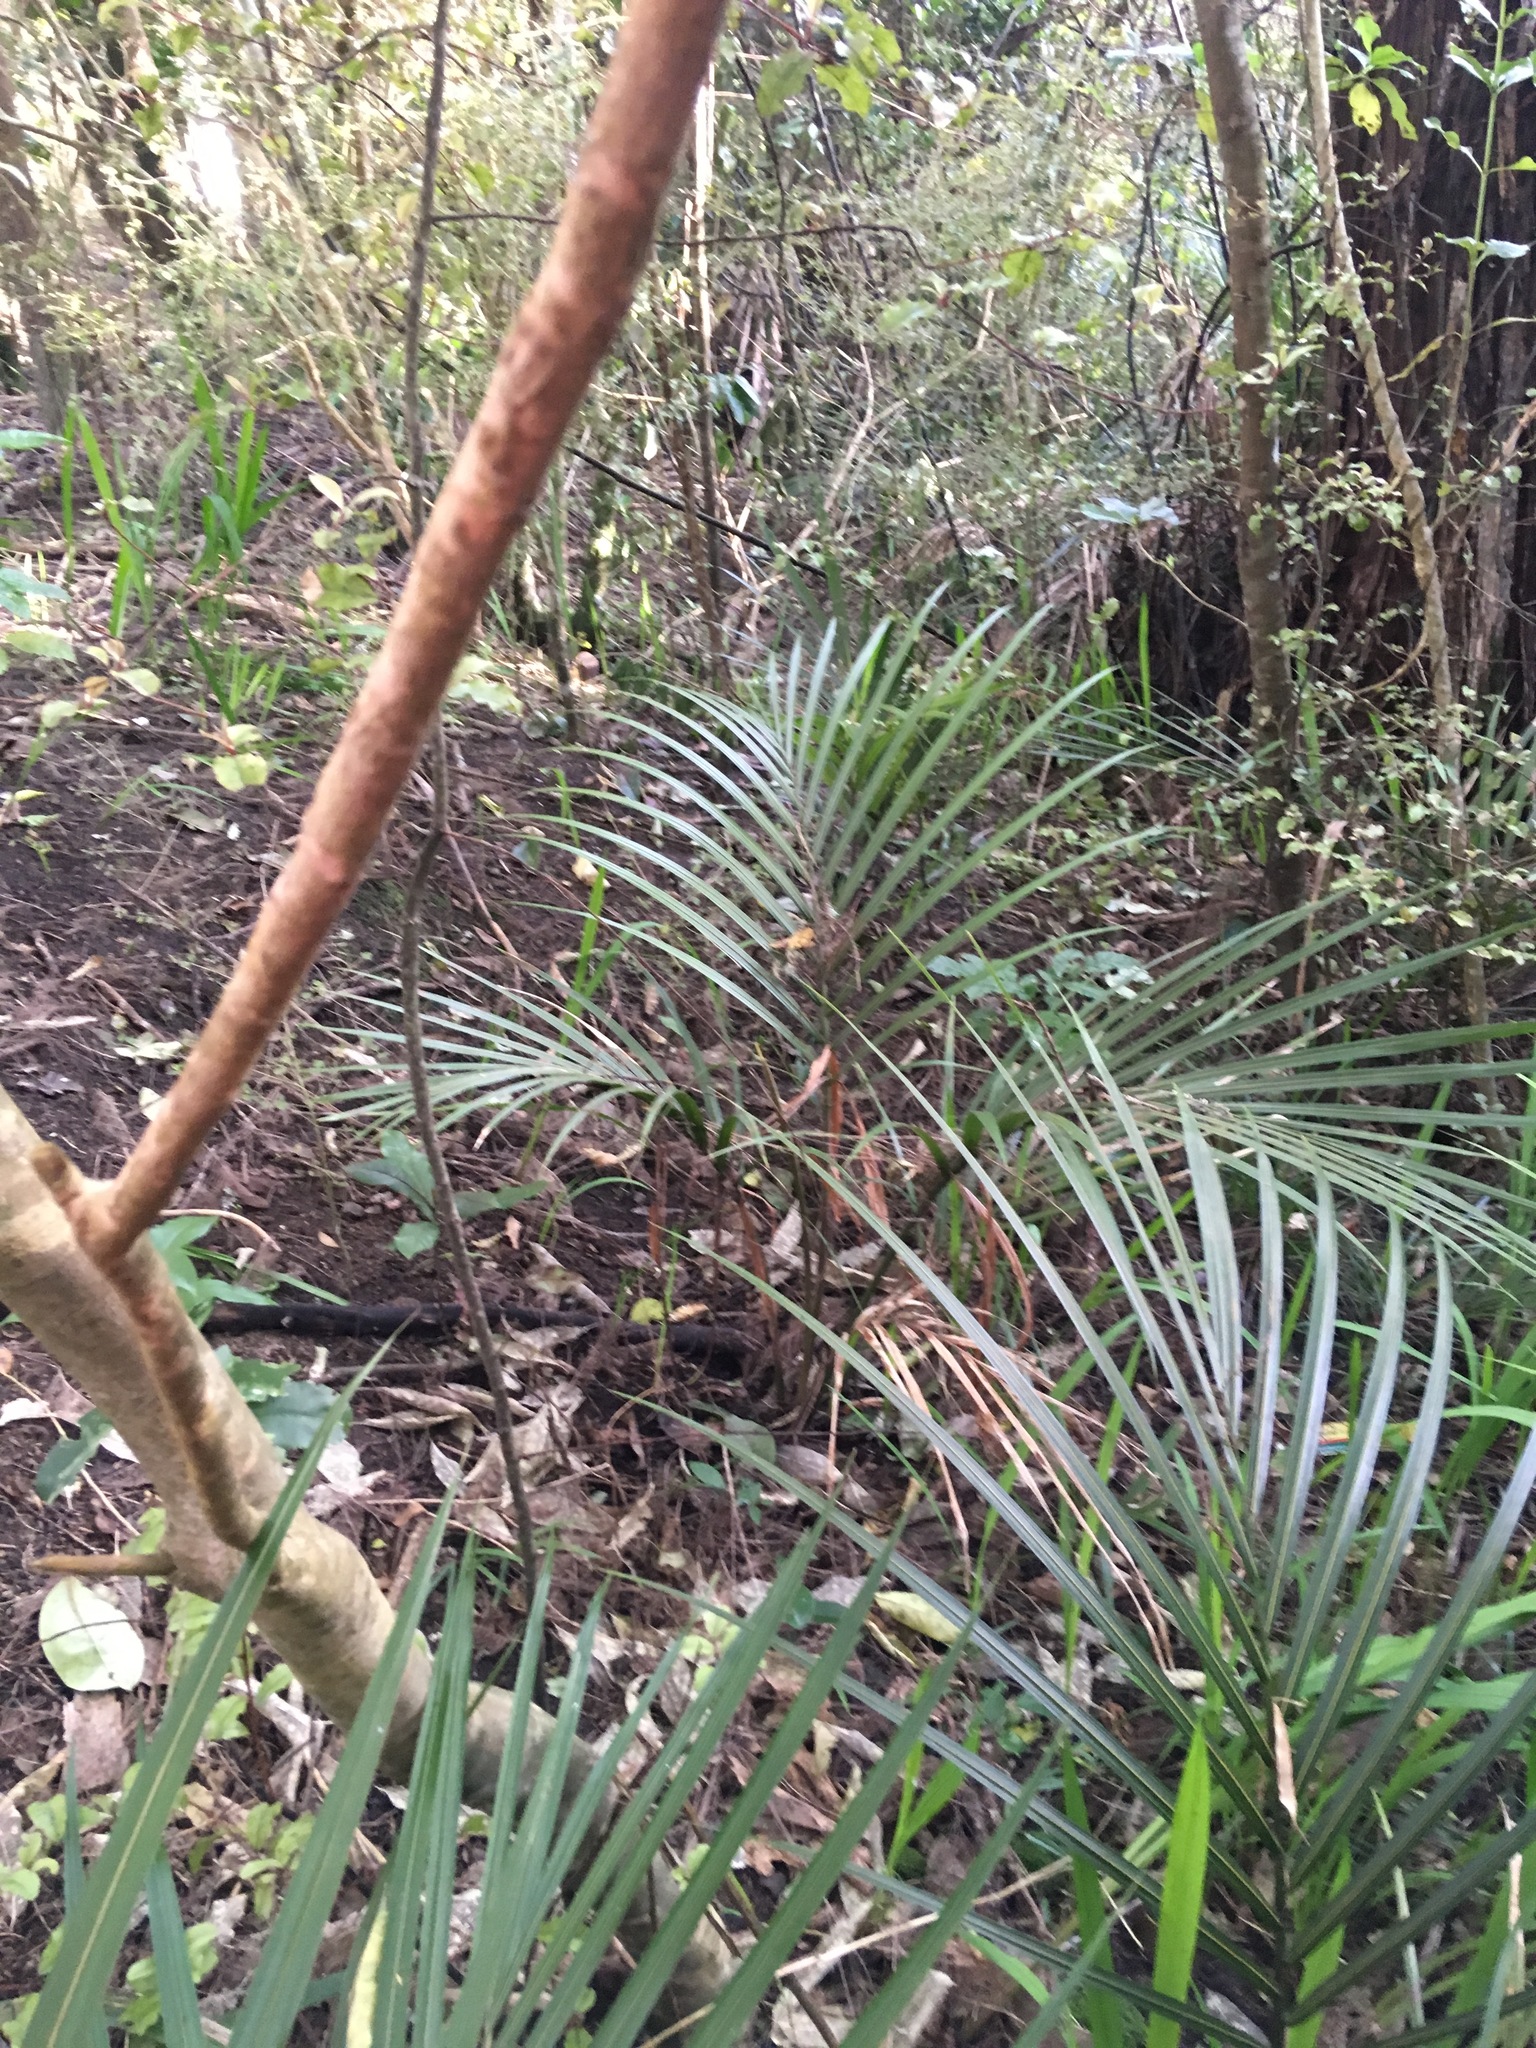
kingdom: Plantae
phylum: Tracheophyta
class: Liliopsida
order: Arecales
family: Arecaceae
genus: Rhopalostylis
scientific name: Rhopalostylis sapida
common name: Feather-duster palm
